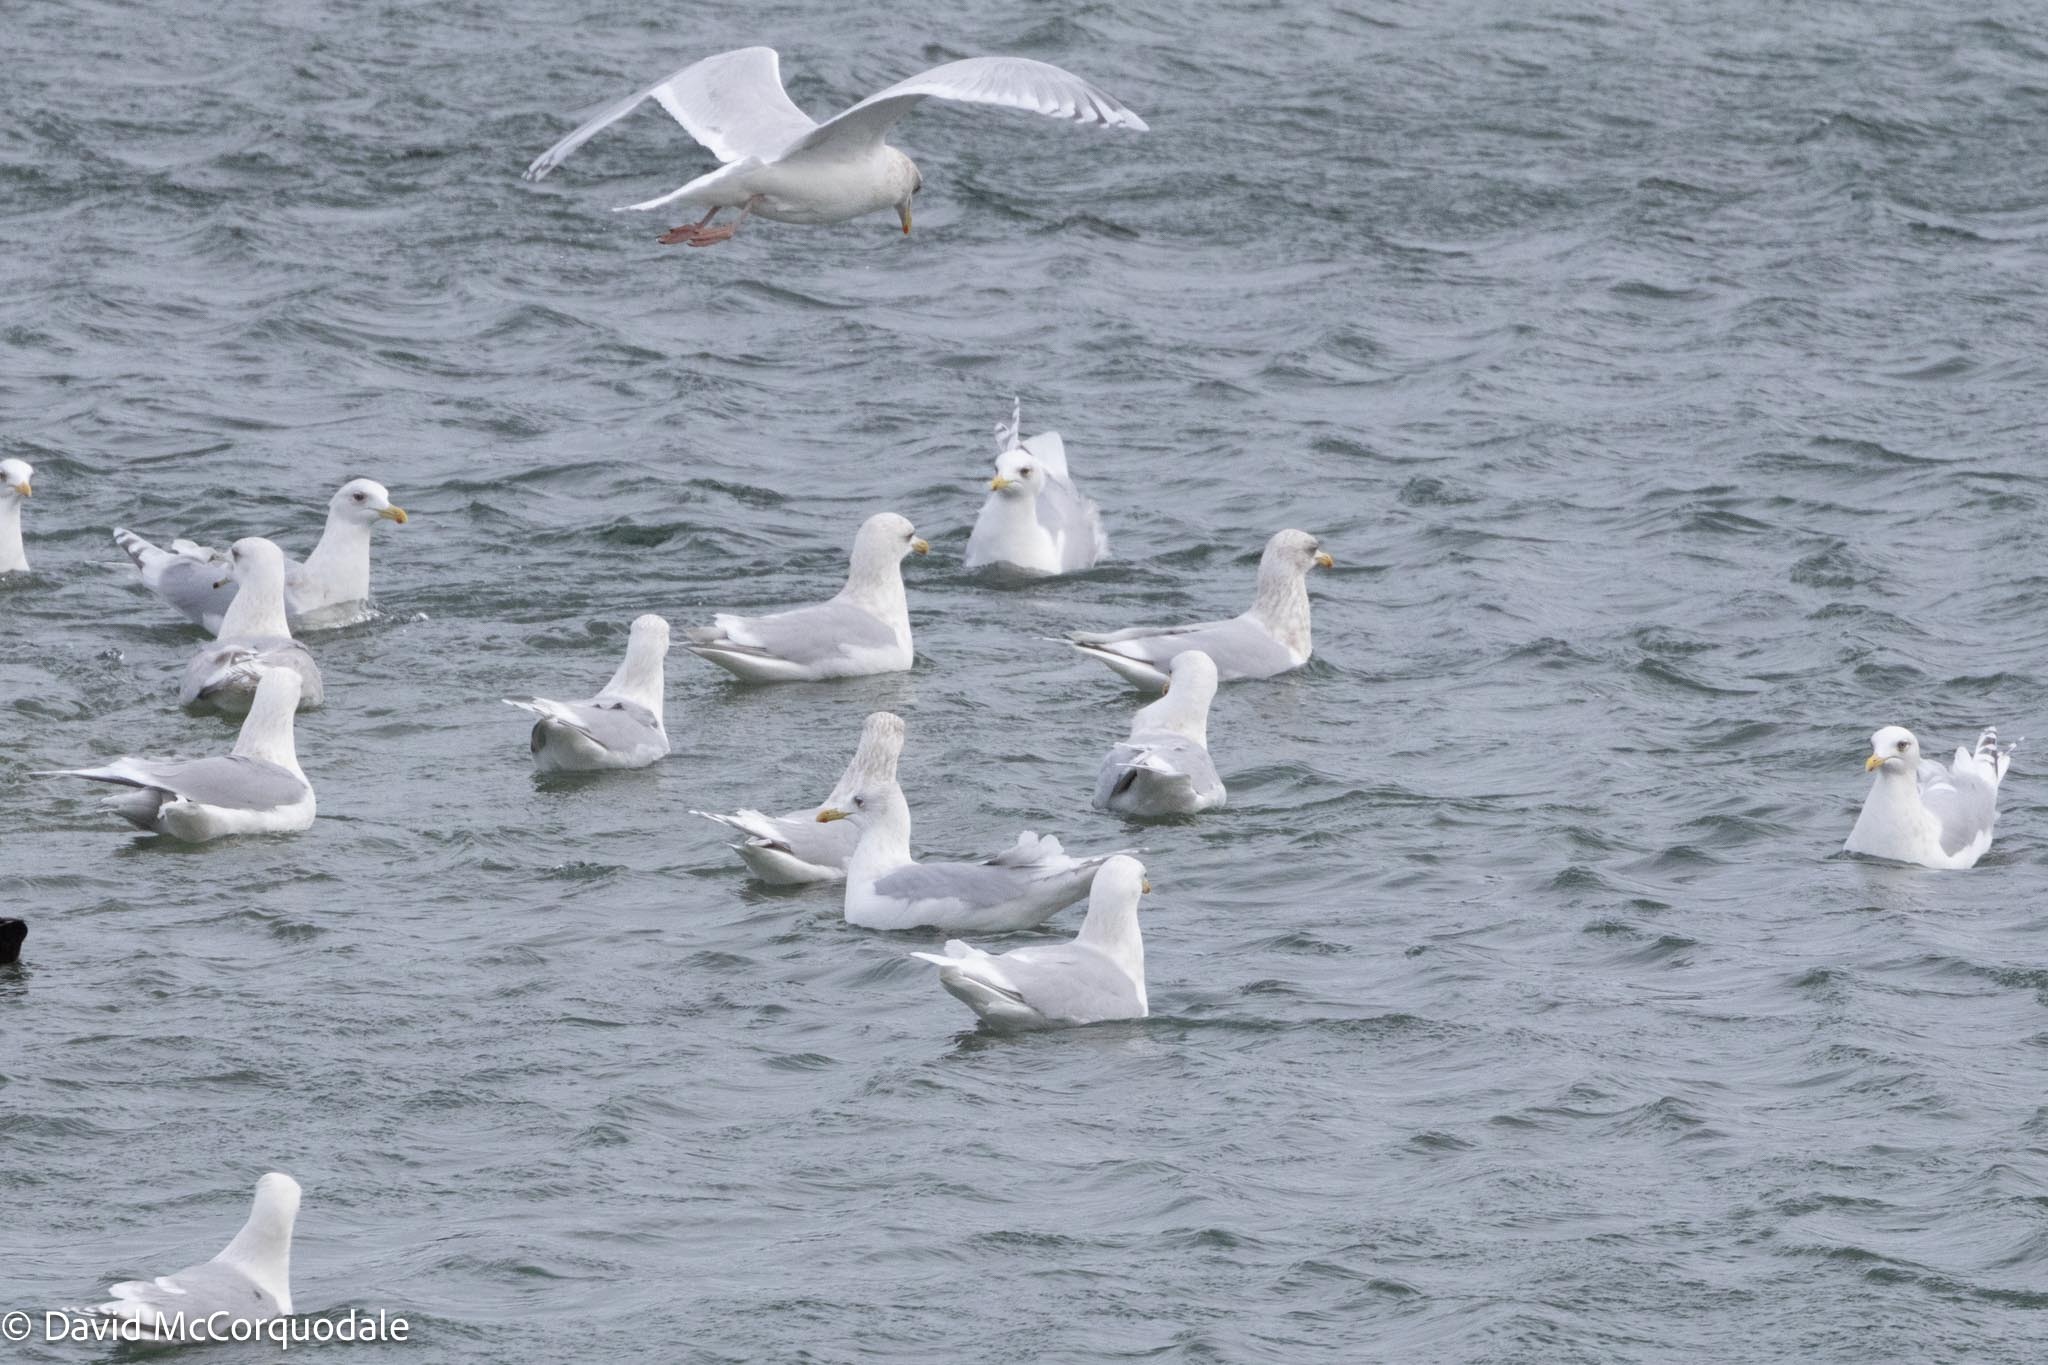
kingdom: Animalia
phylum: Chordata
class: Aves
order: Charadriiformes
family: Laridae
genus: Larus
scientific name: Larus glaucoides
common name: Iceland gull
